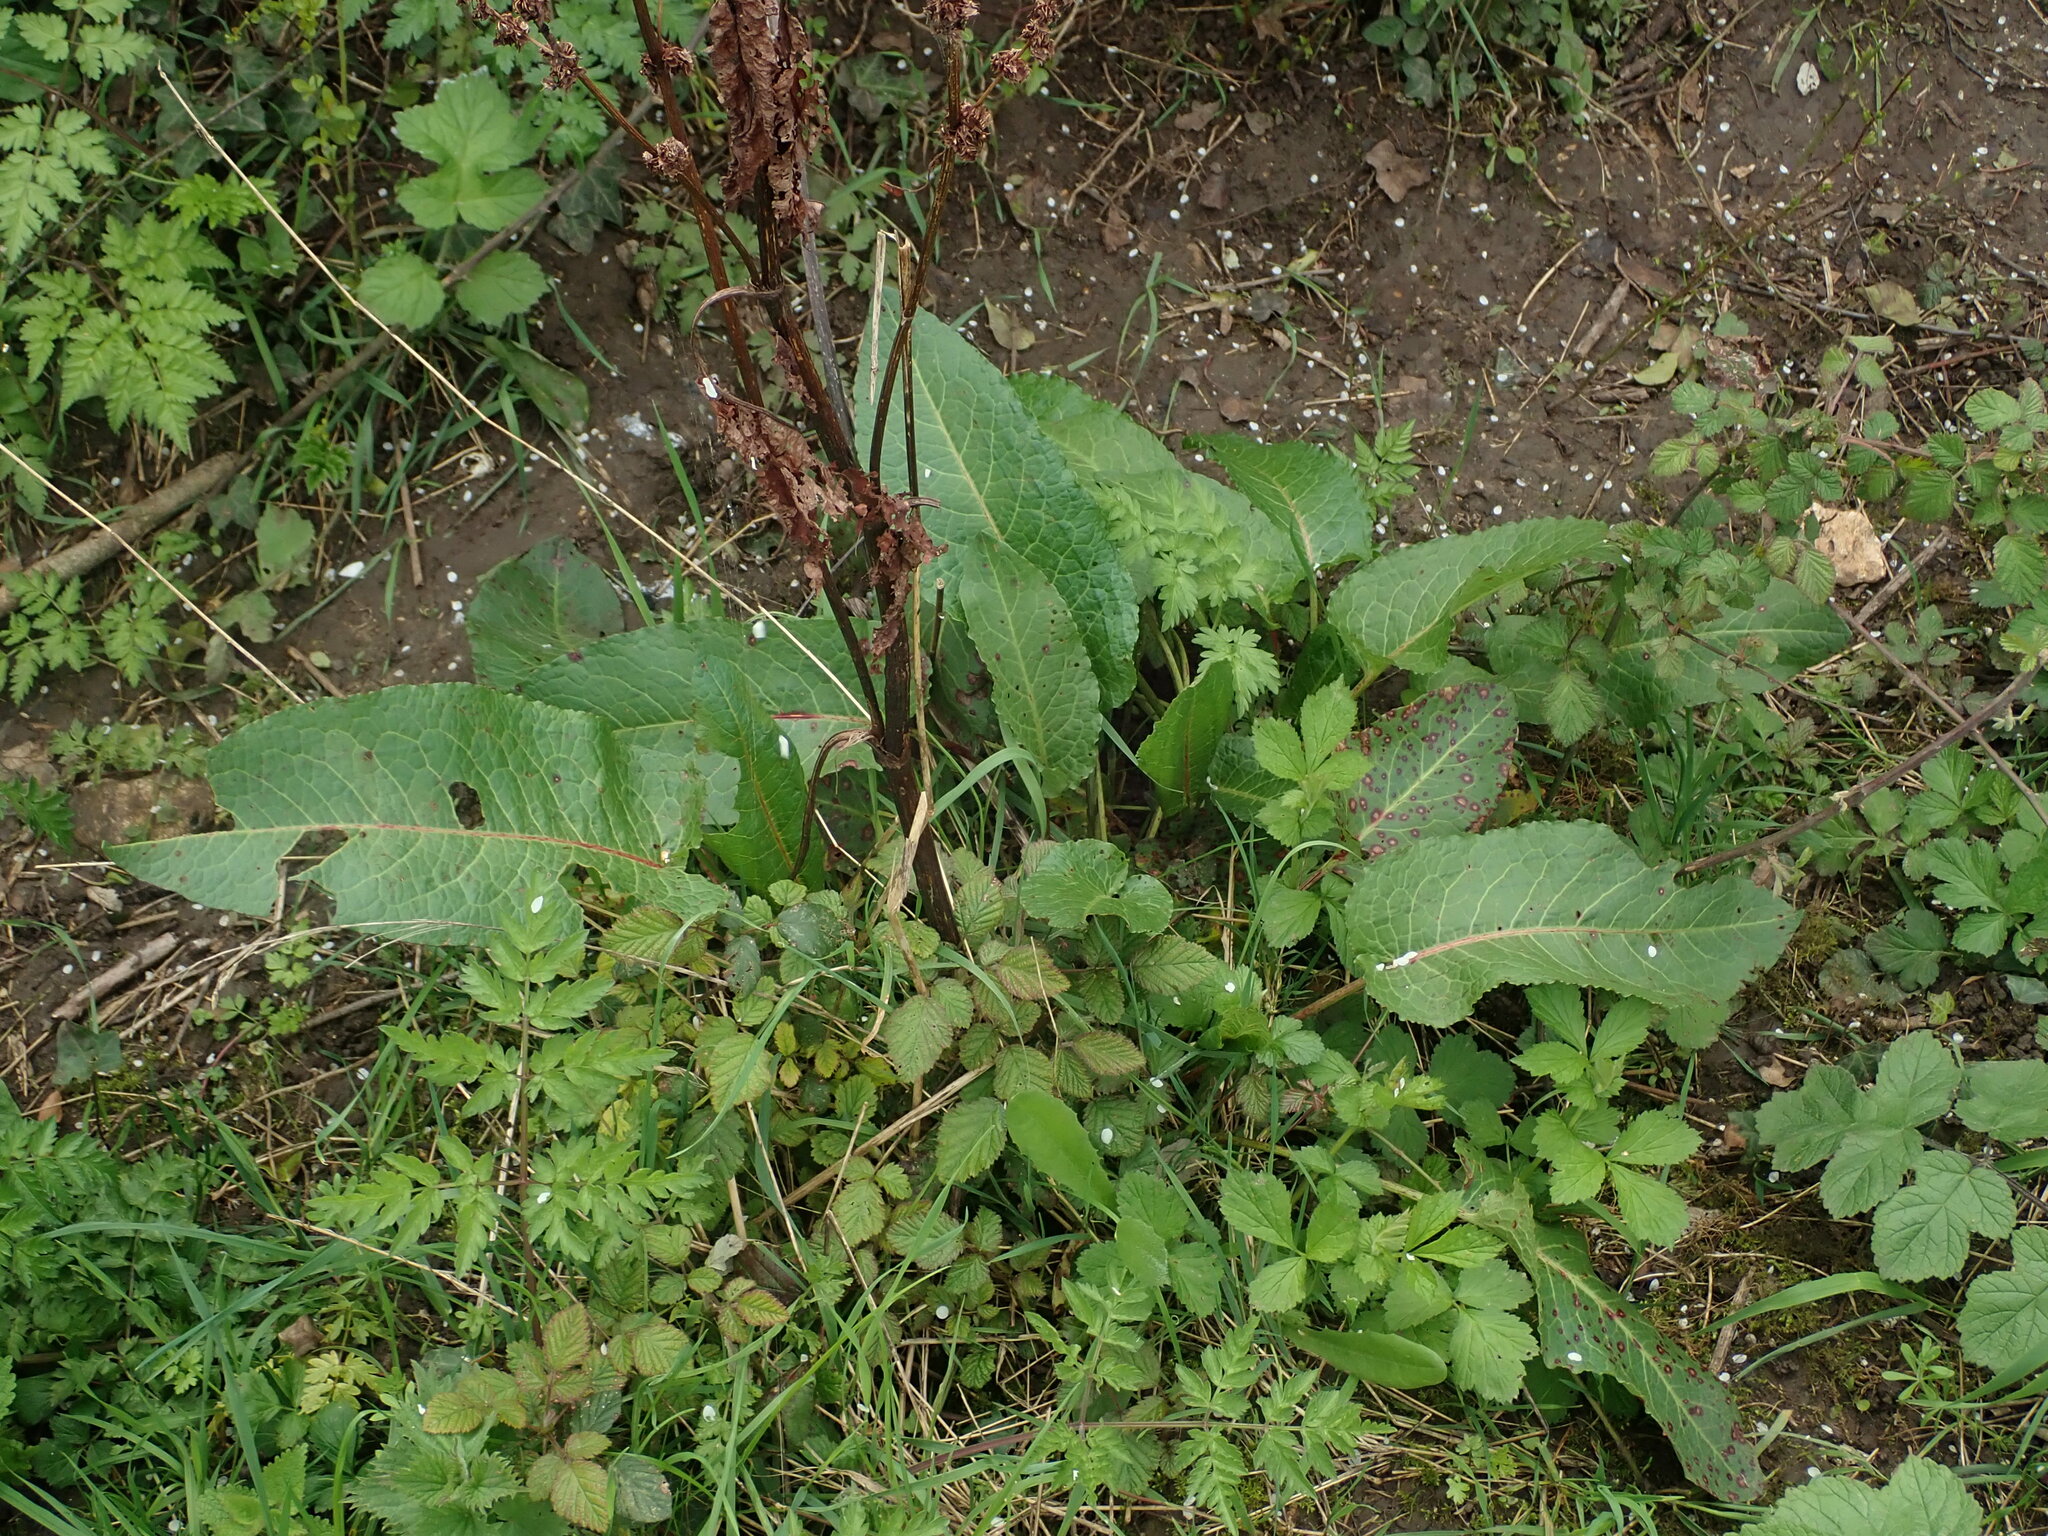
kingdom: Plantae
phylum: Tracheophyta
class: Magnoliopsida
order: Caryophyllales
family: Polygonaceae
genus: Rumex
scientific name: Rumex obtusifolius
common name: Bitter dock
